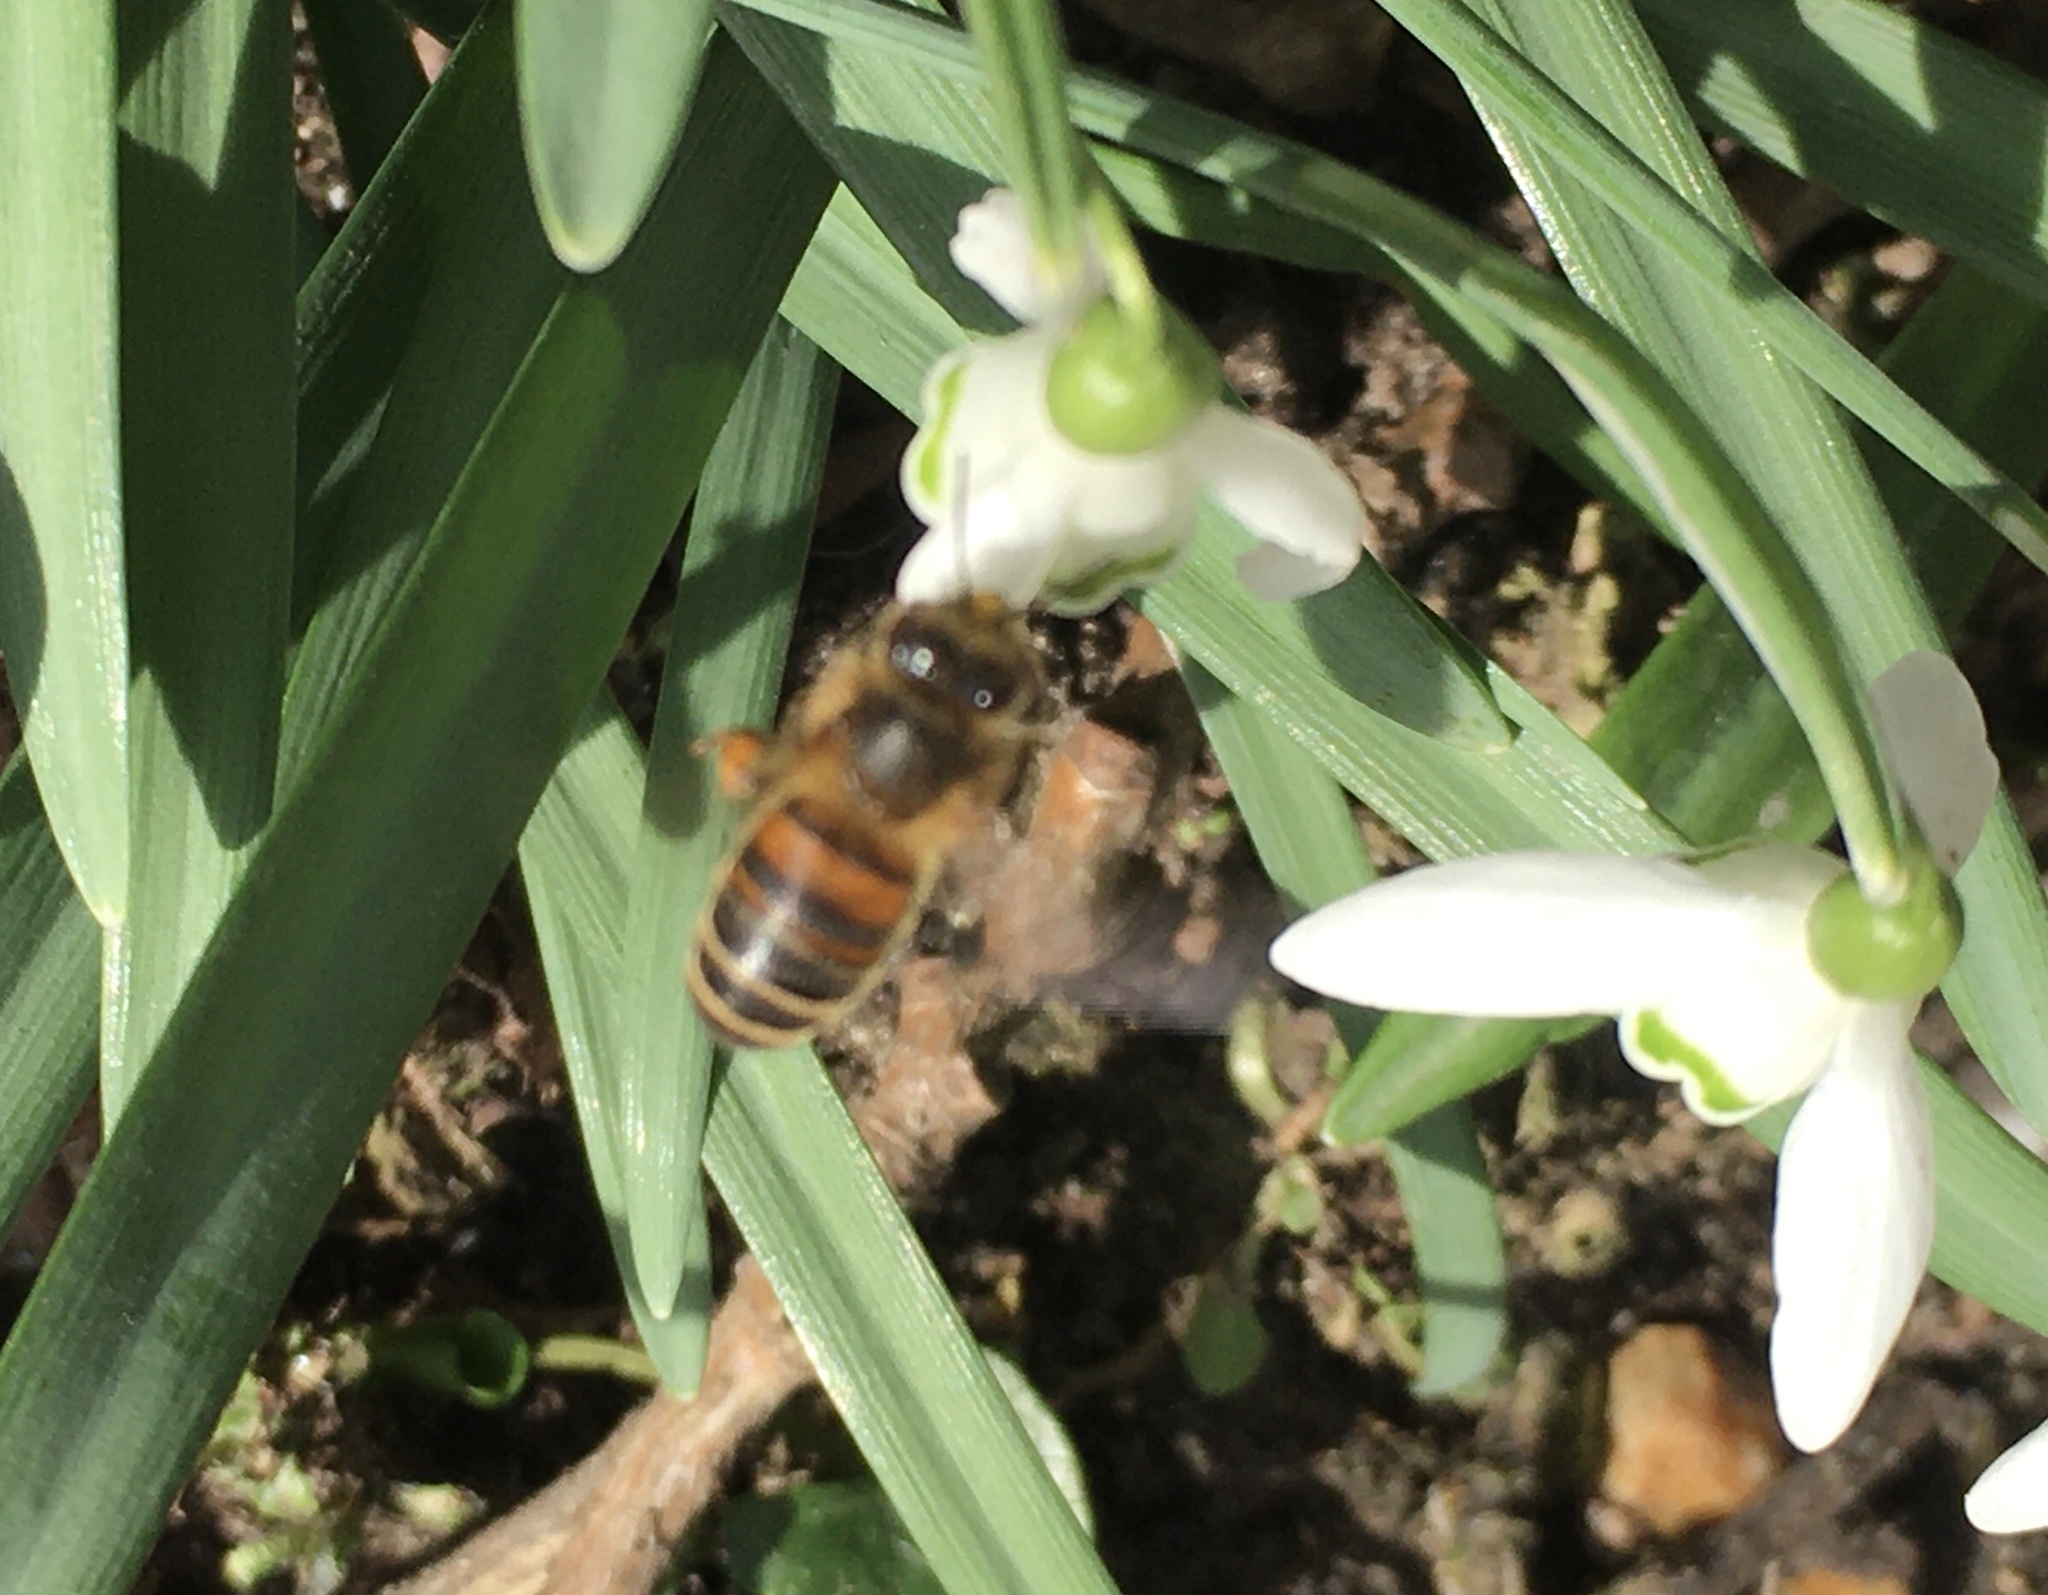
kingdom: Animalia
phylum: Arthropoda
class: Insecta
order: Hymenoptera
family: Apidae
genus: Apis
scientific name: Apis mellifera
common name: Honey bee
